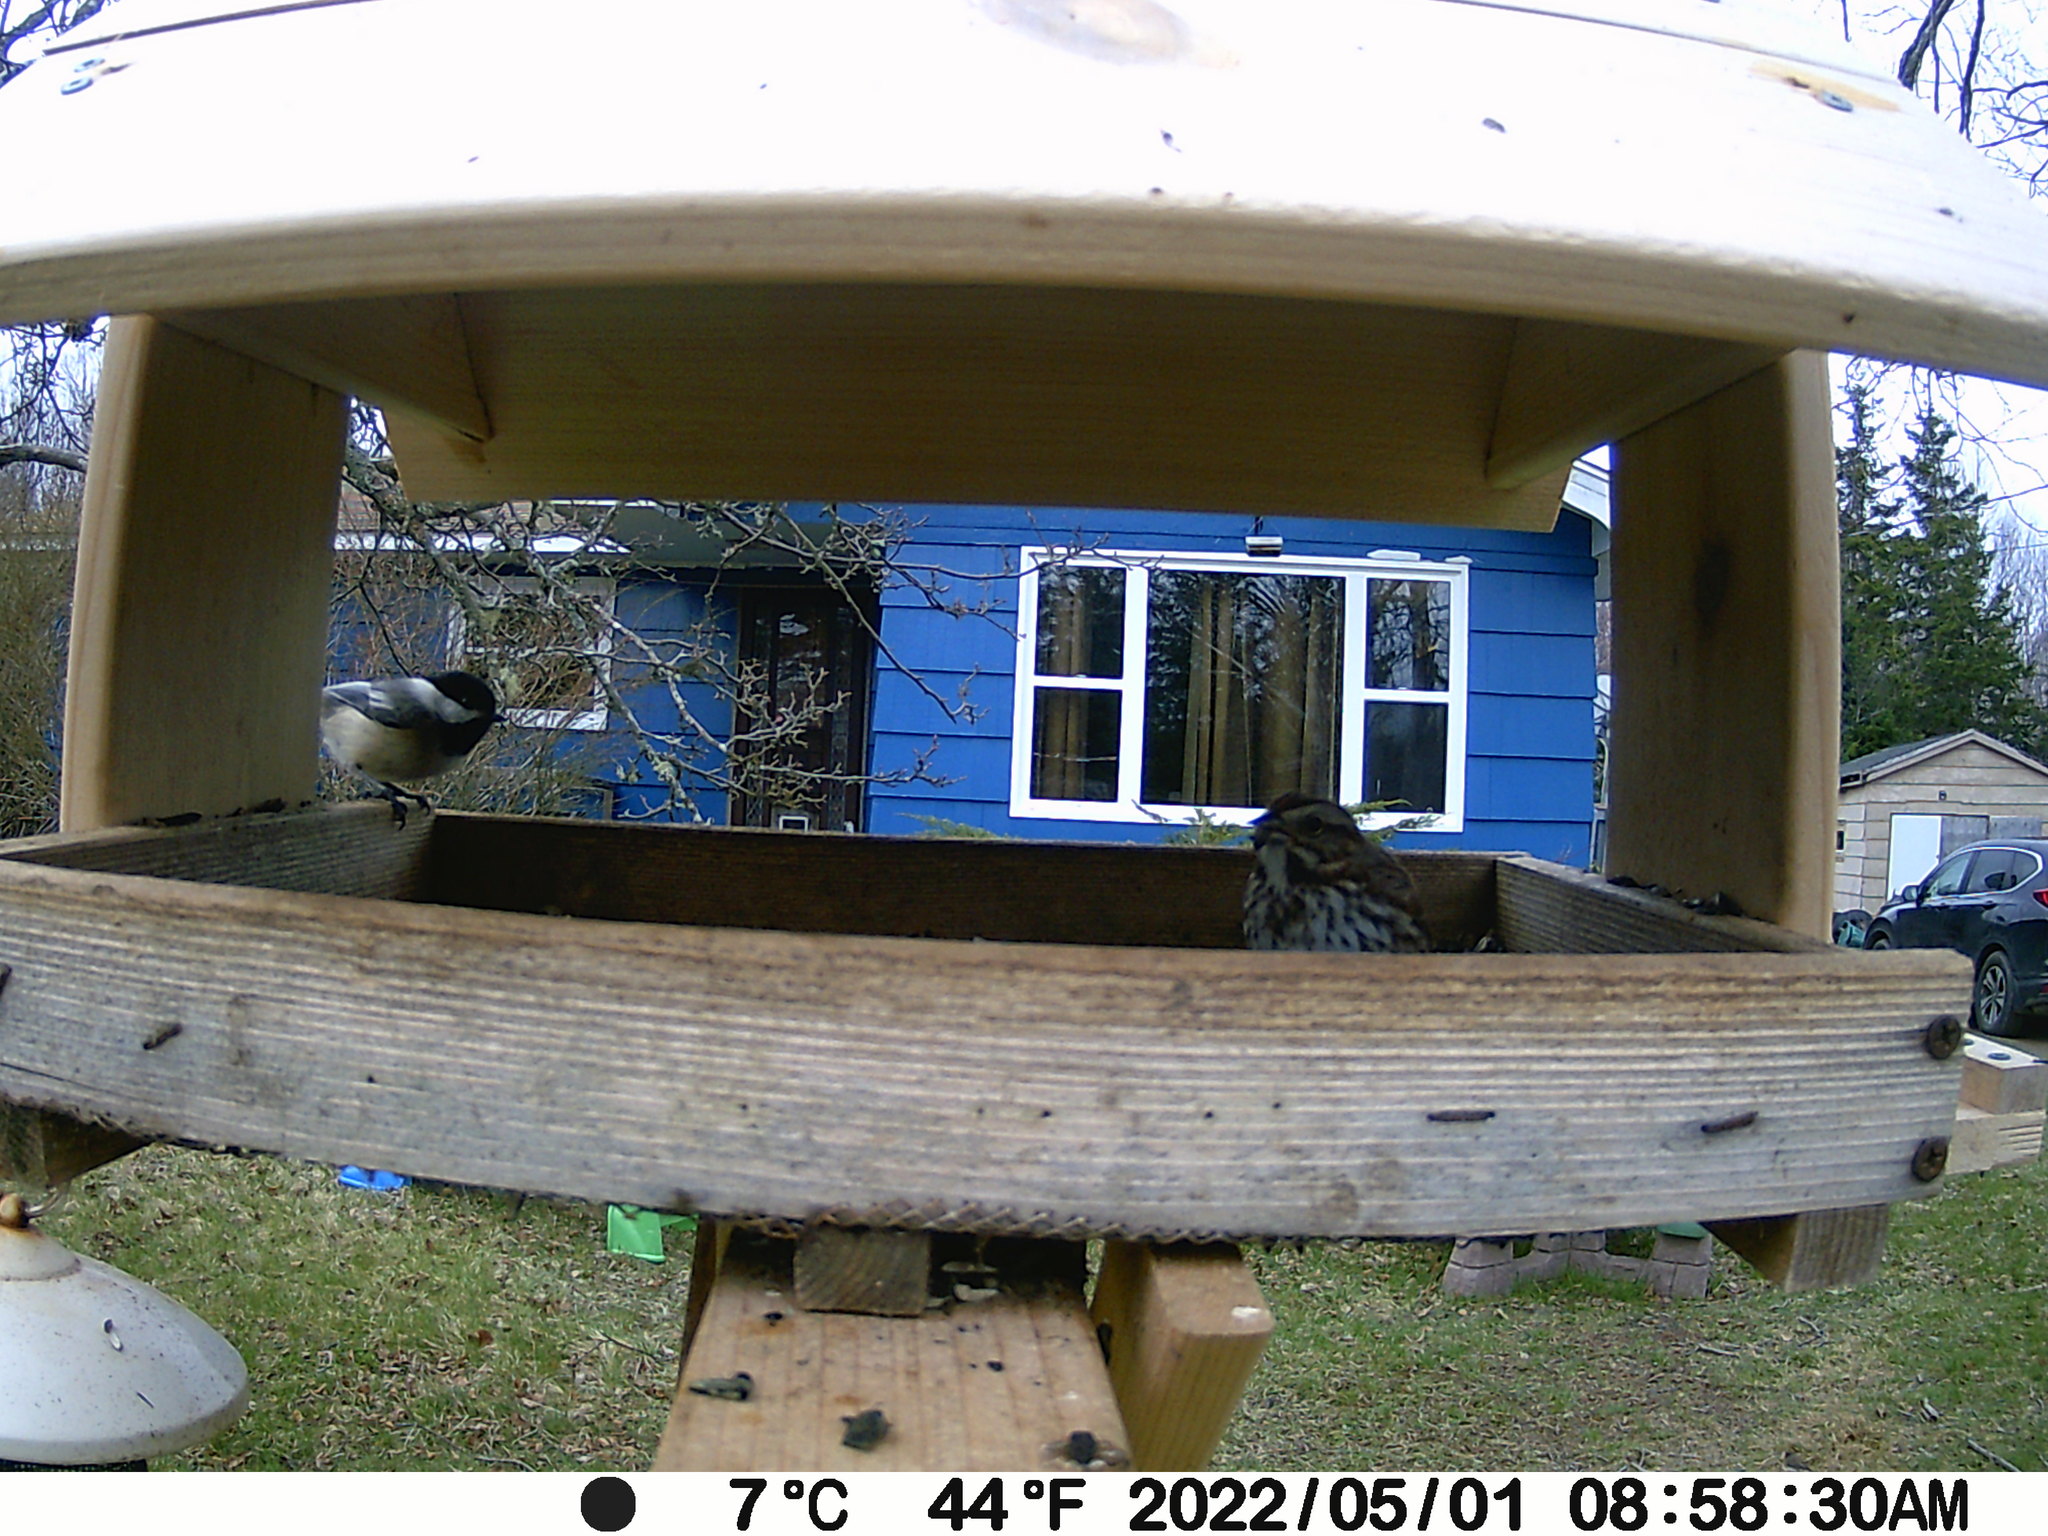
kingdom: Animalia
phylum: Chordata
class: Aves
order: Passeriformes
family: Passerellidae
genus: Melospiza
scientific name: Melospiza melodia
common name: Song sparrow
